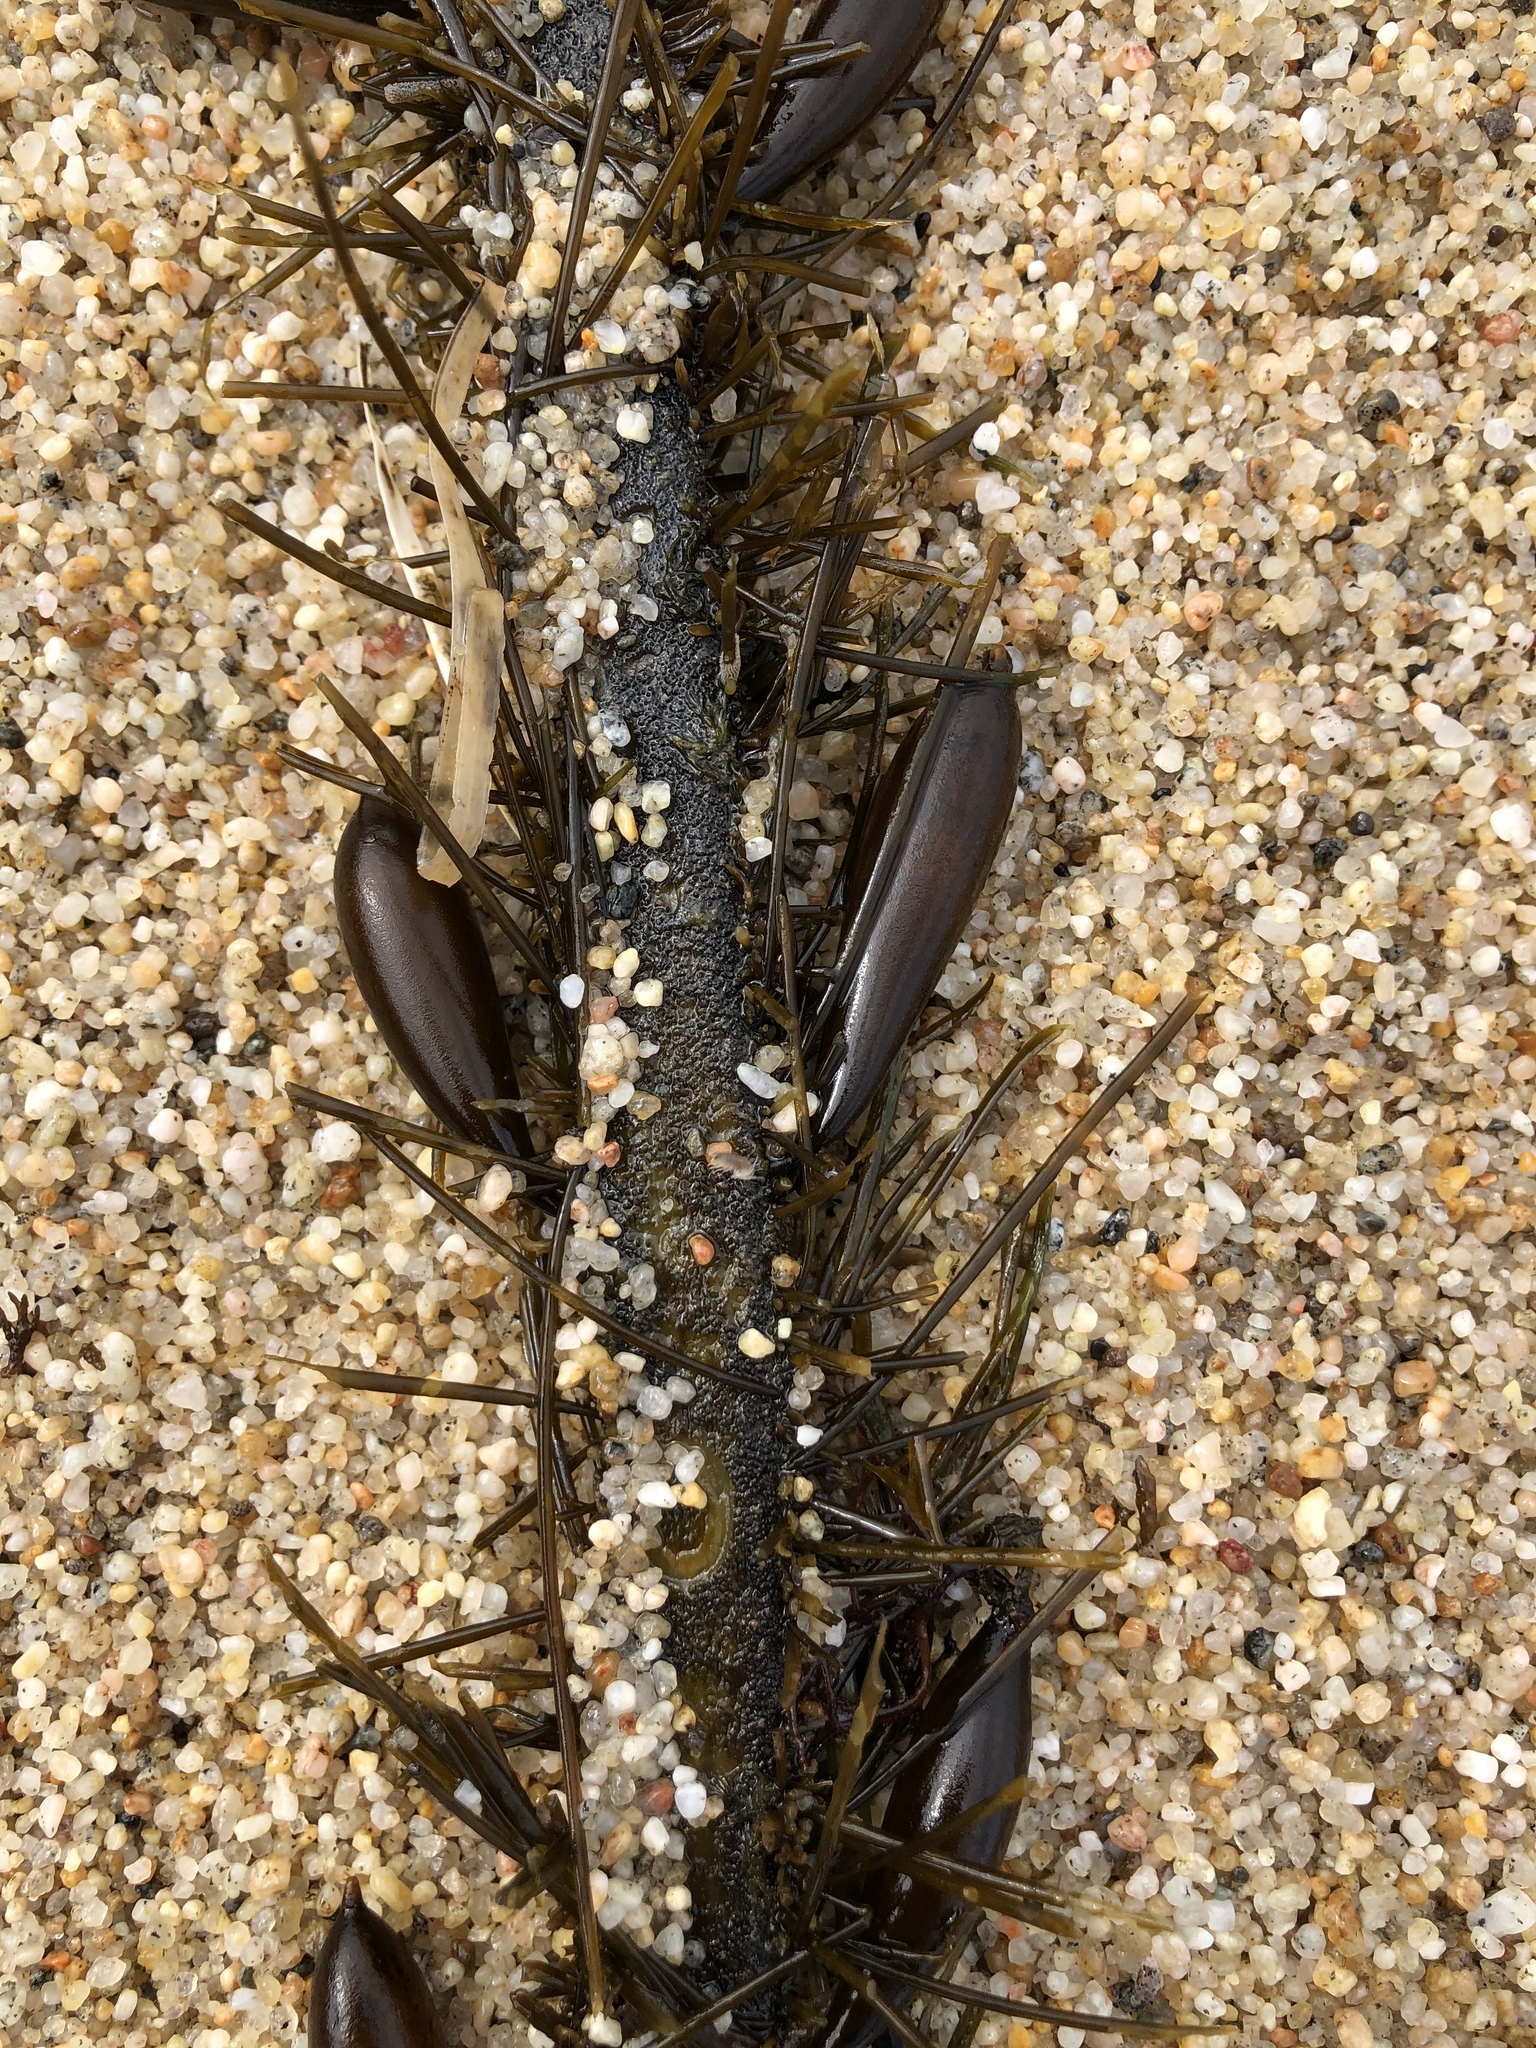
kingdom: Chromista
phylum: Ochrophyta
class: Phaeophyceae
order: Laminariales
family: Lessoniaceae
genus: Egregia
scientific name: Egregia menziesii
